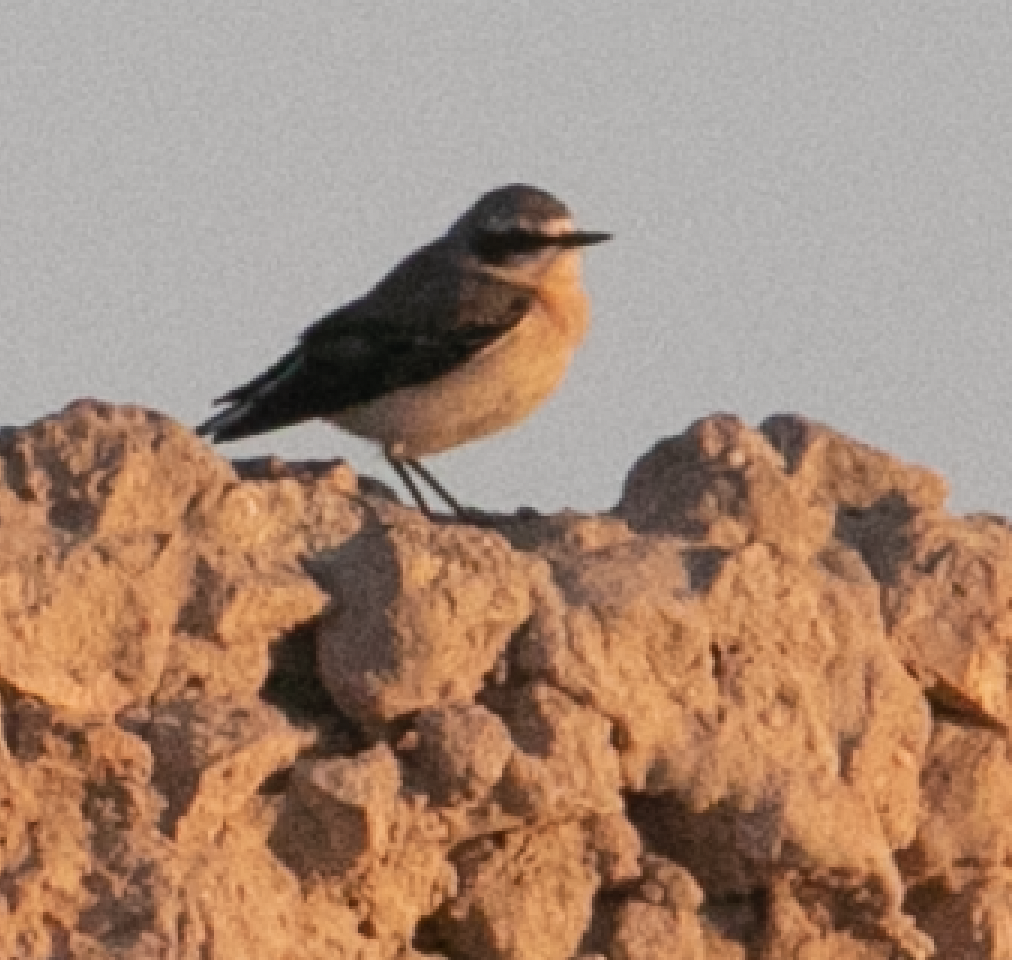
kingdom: Animalia
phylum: Chordata
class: Aves
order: Passeriformes
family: Muscicapidae
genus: Oenanthe
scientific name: Oenanthe oenanthe
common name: Northern wheatear
